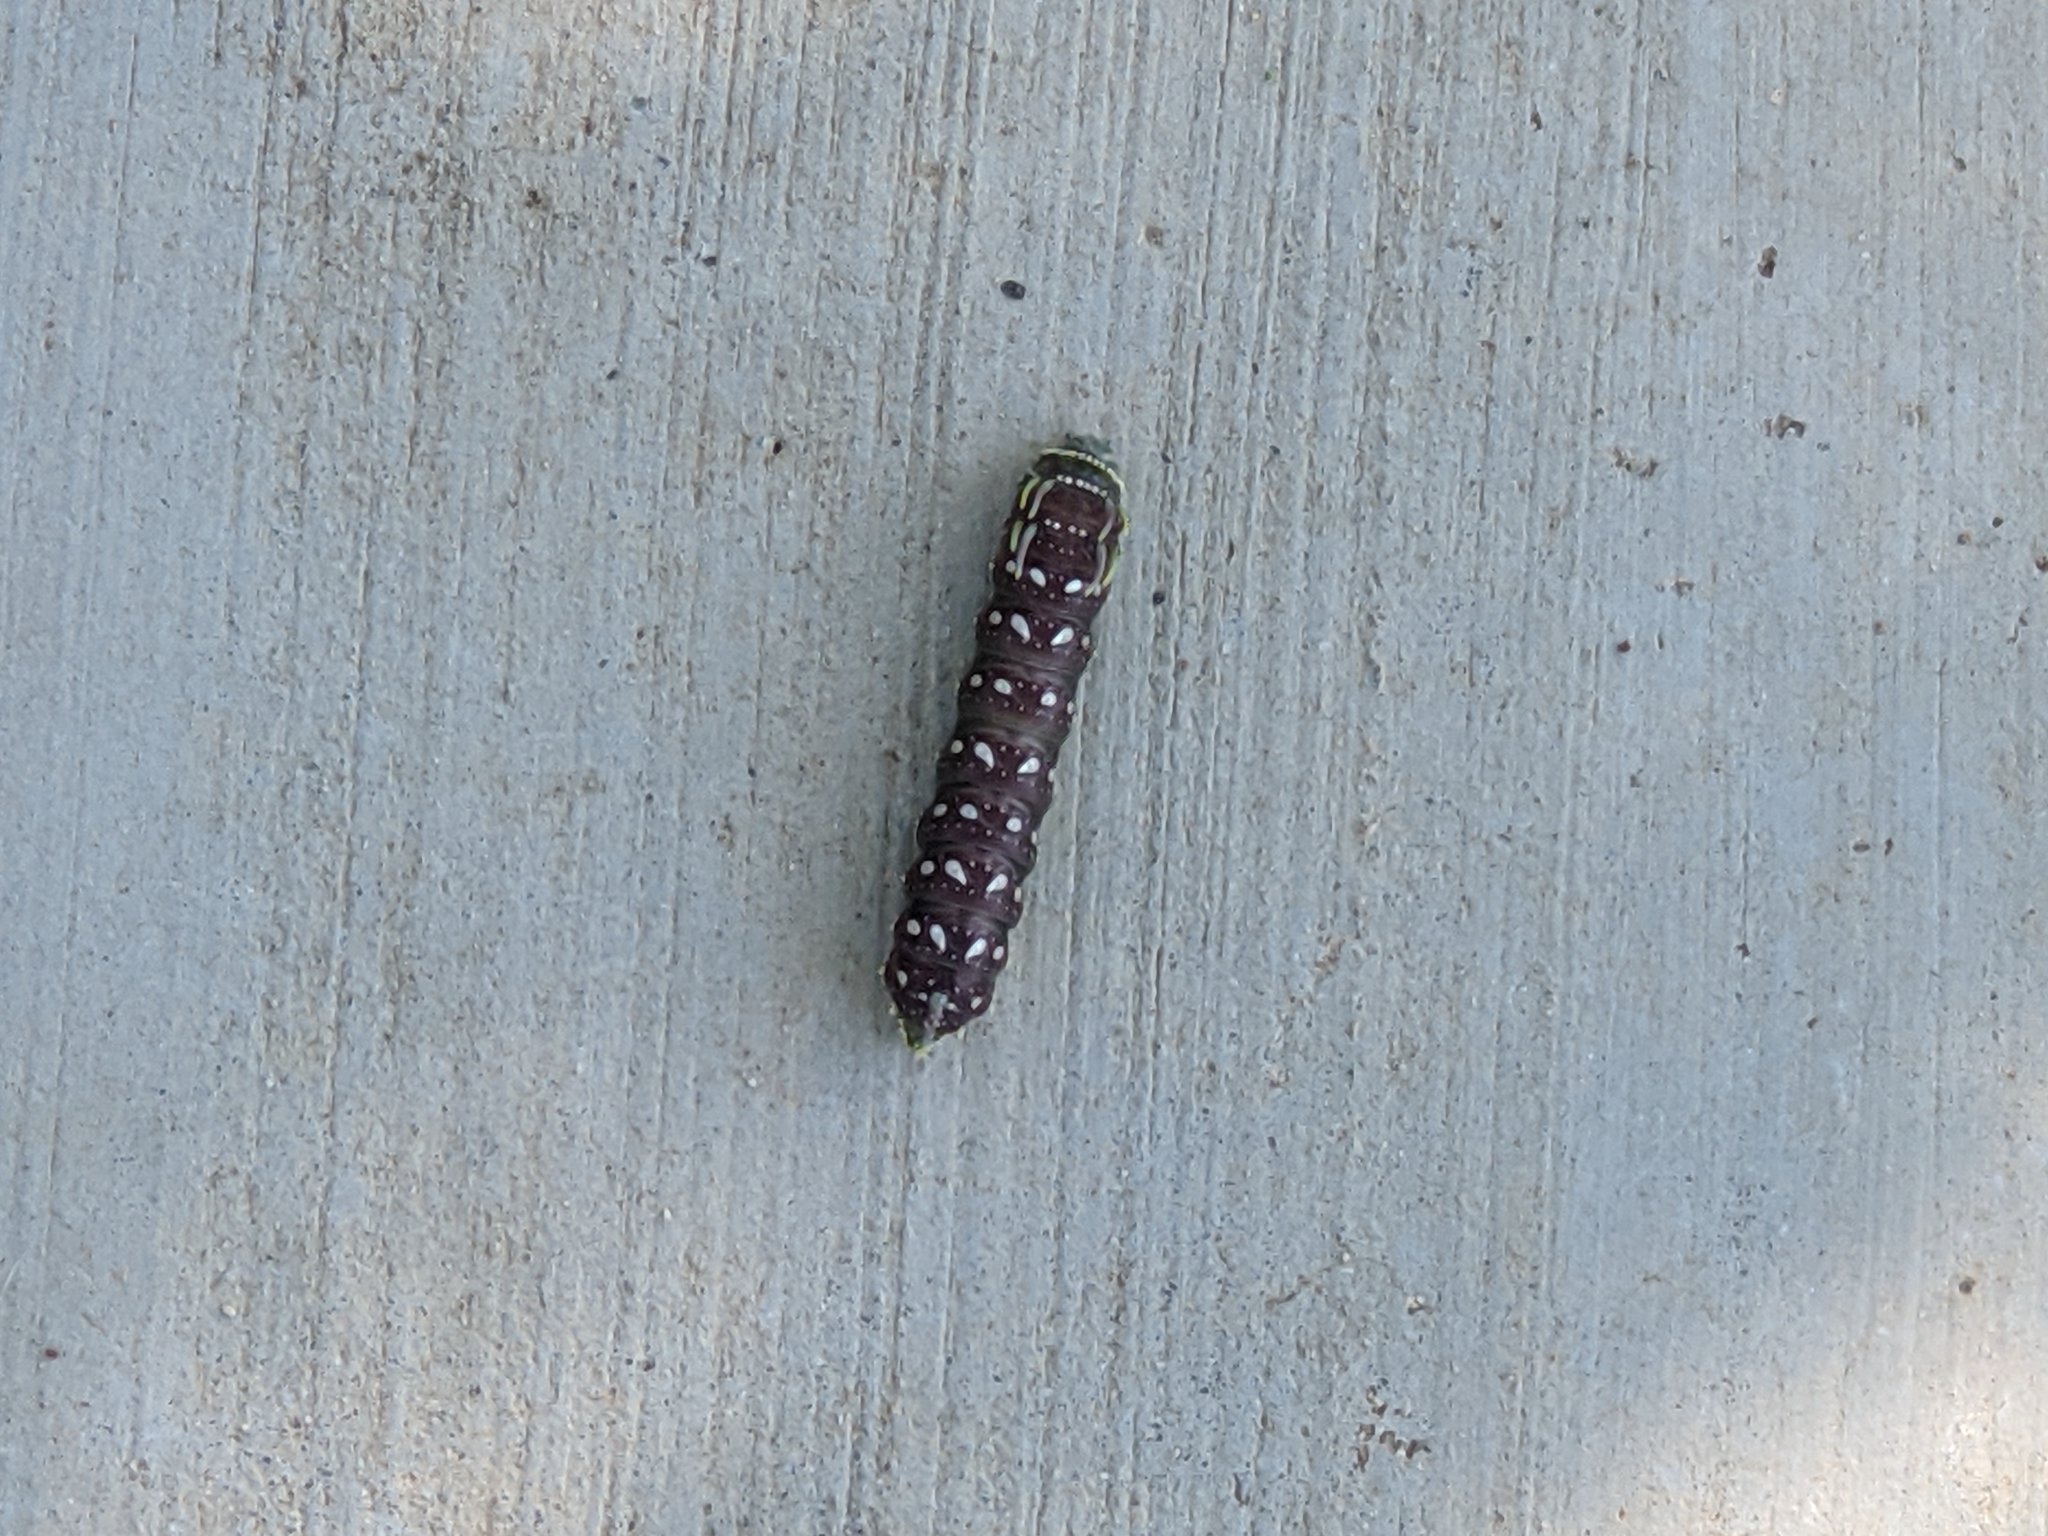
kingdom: Animalia
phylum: Arthropoda
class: Insecta
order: Lepidoptera
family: Saturniidae
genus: Syssphinx
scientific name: Syssphinx hubbardi
